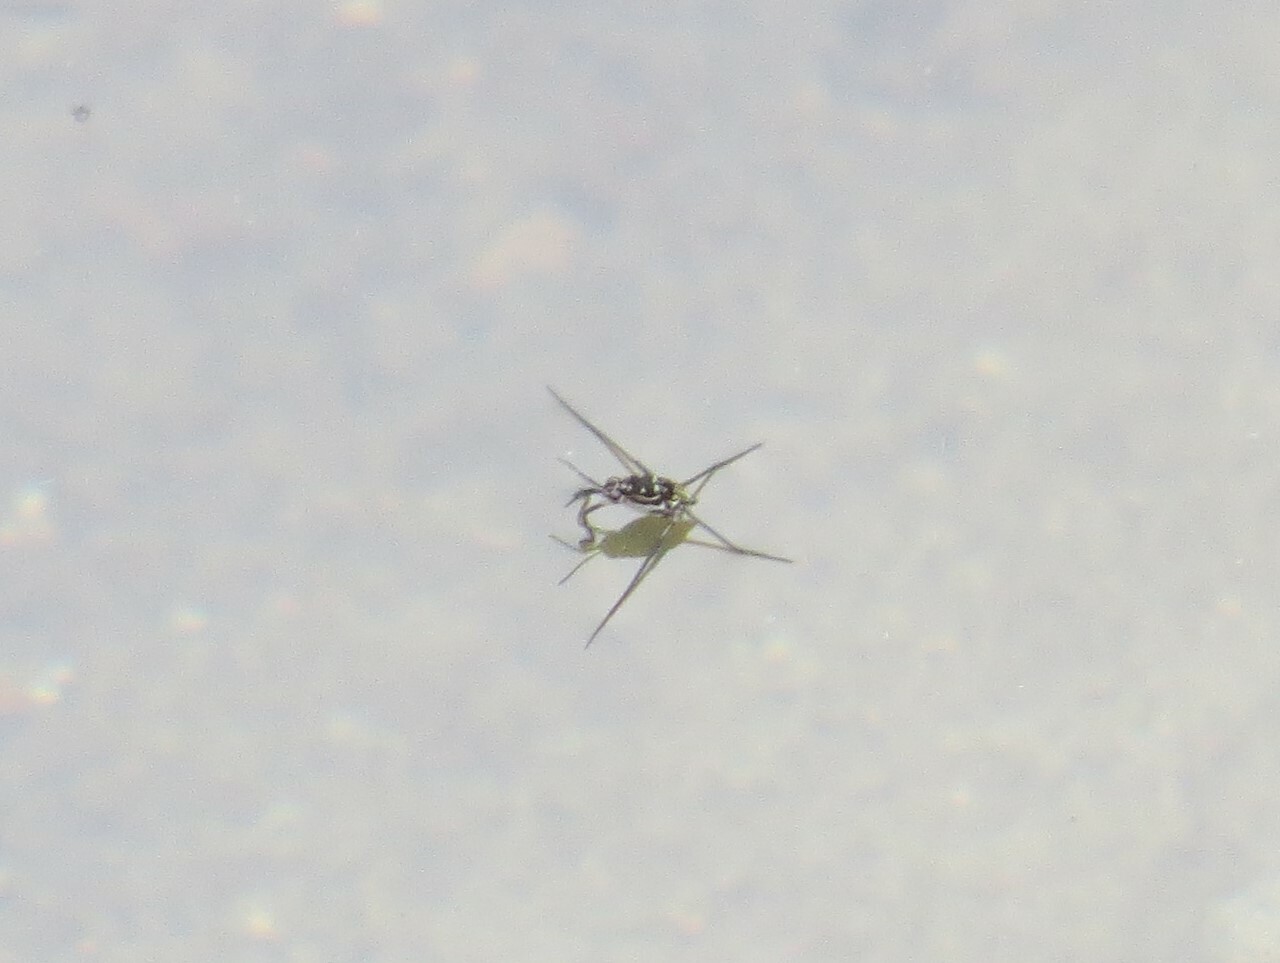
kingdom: Animalia
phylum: Arthropoda
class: Insecta
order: Hemiptera
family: Gerridae
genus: Trepobates
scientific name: Trepobates
